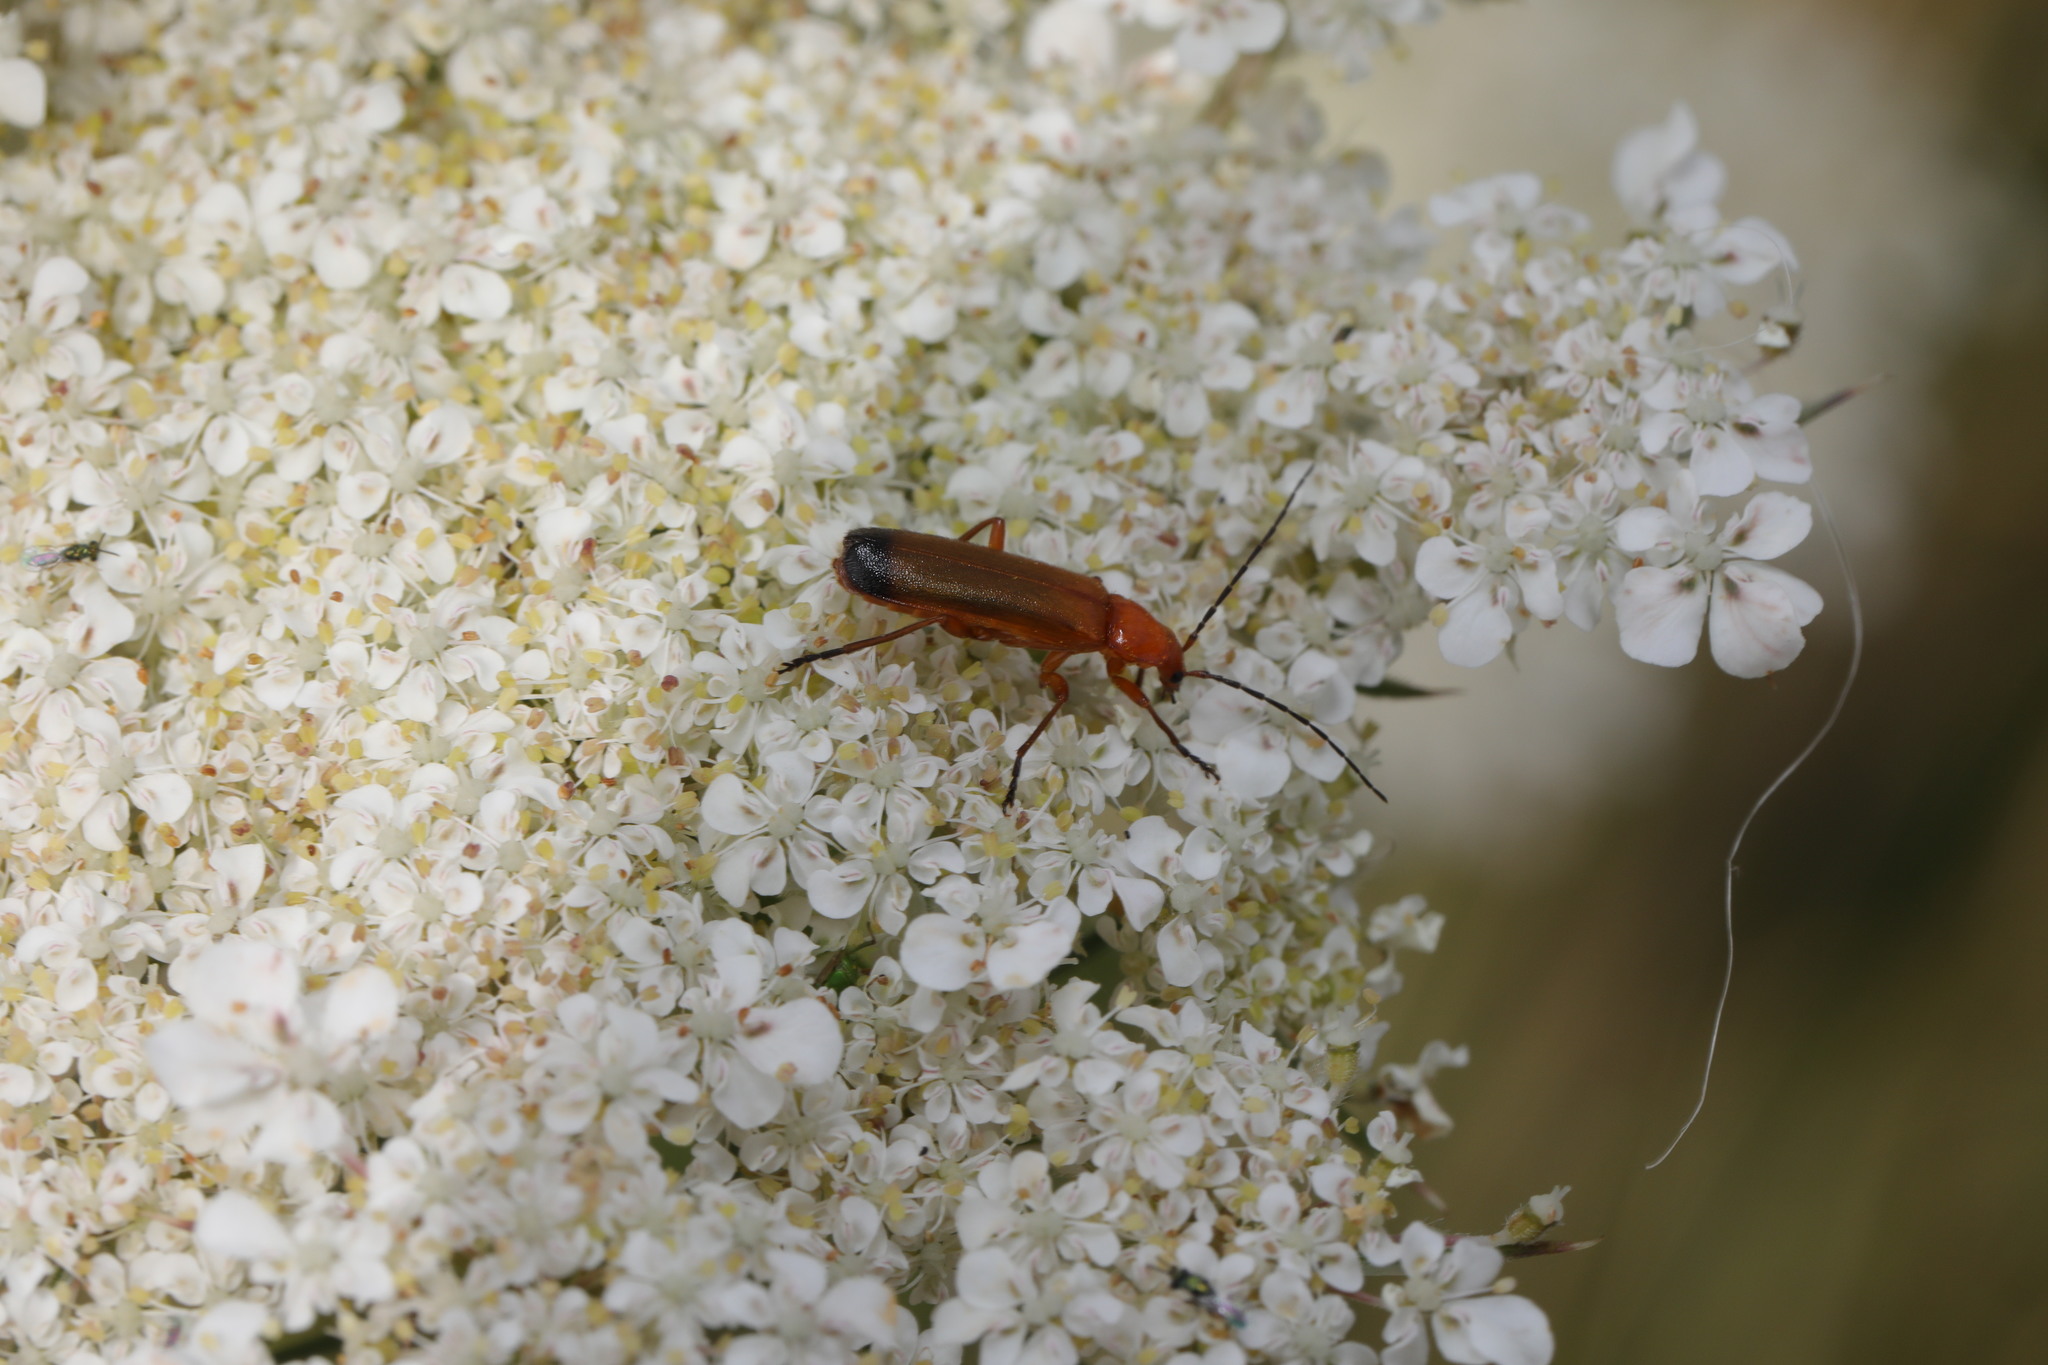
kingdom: Animalia
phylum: Arthropoda
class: Insecta
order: Coleoptera
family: Cantharidae
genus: Rhagonycha
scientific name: Rhagonycha fulva
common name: Common red soldier beetle
